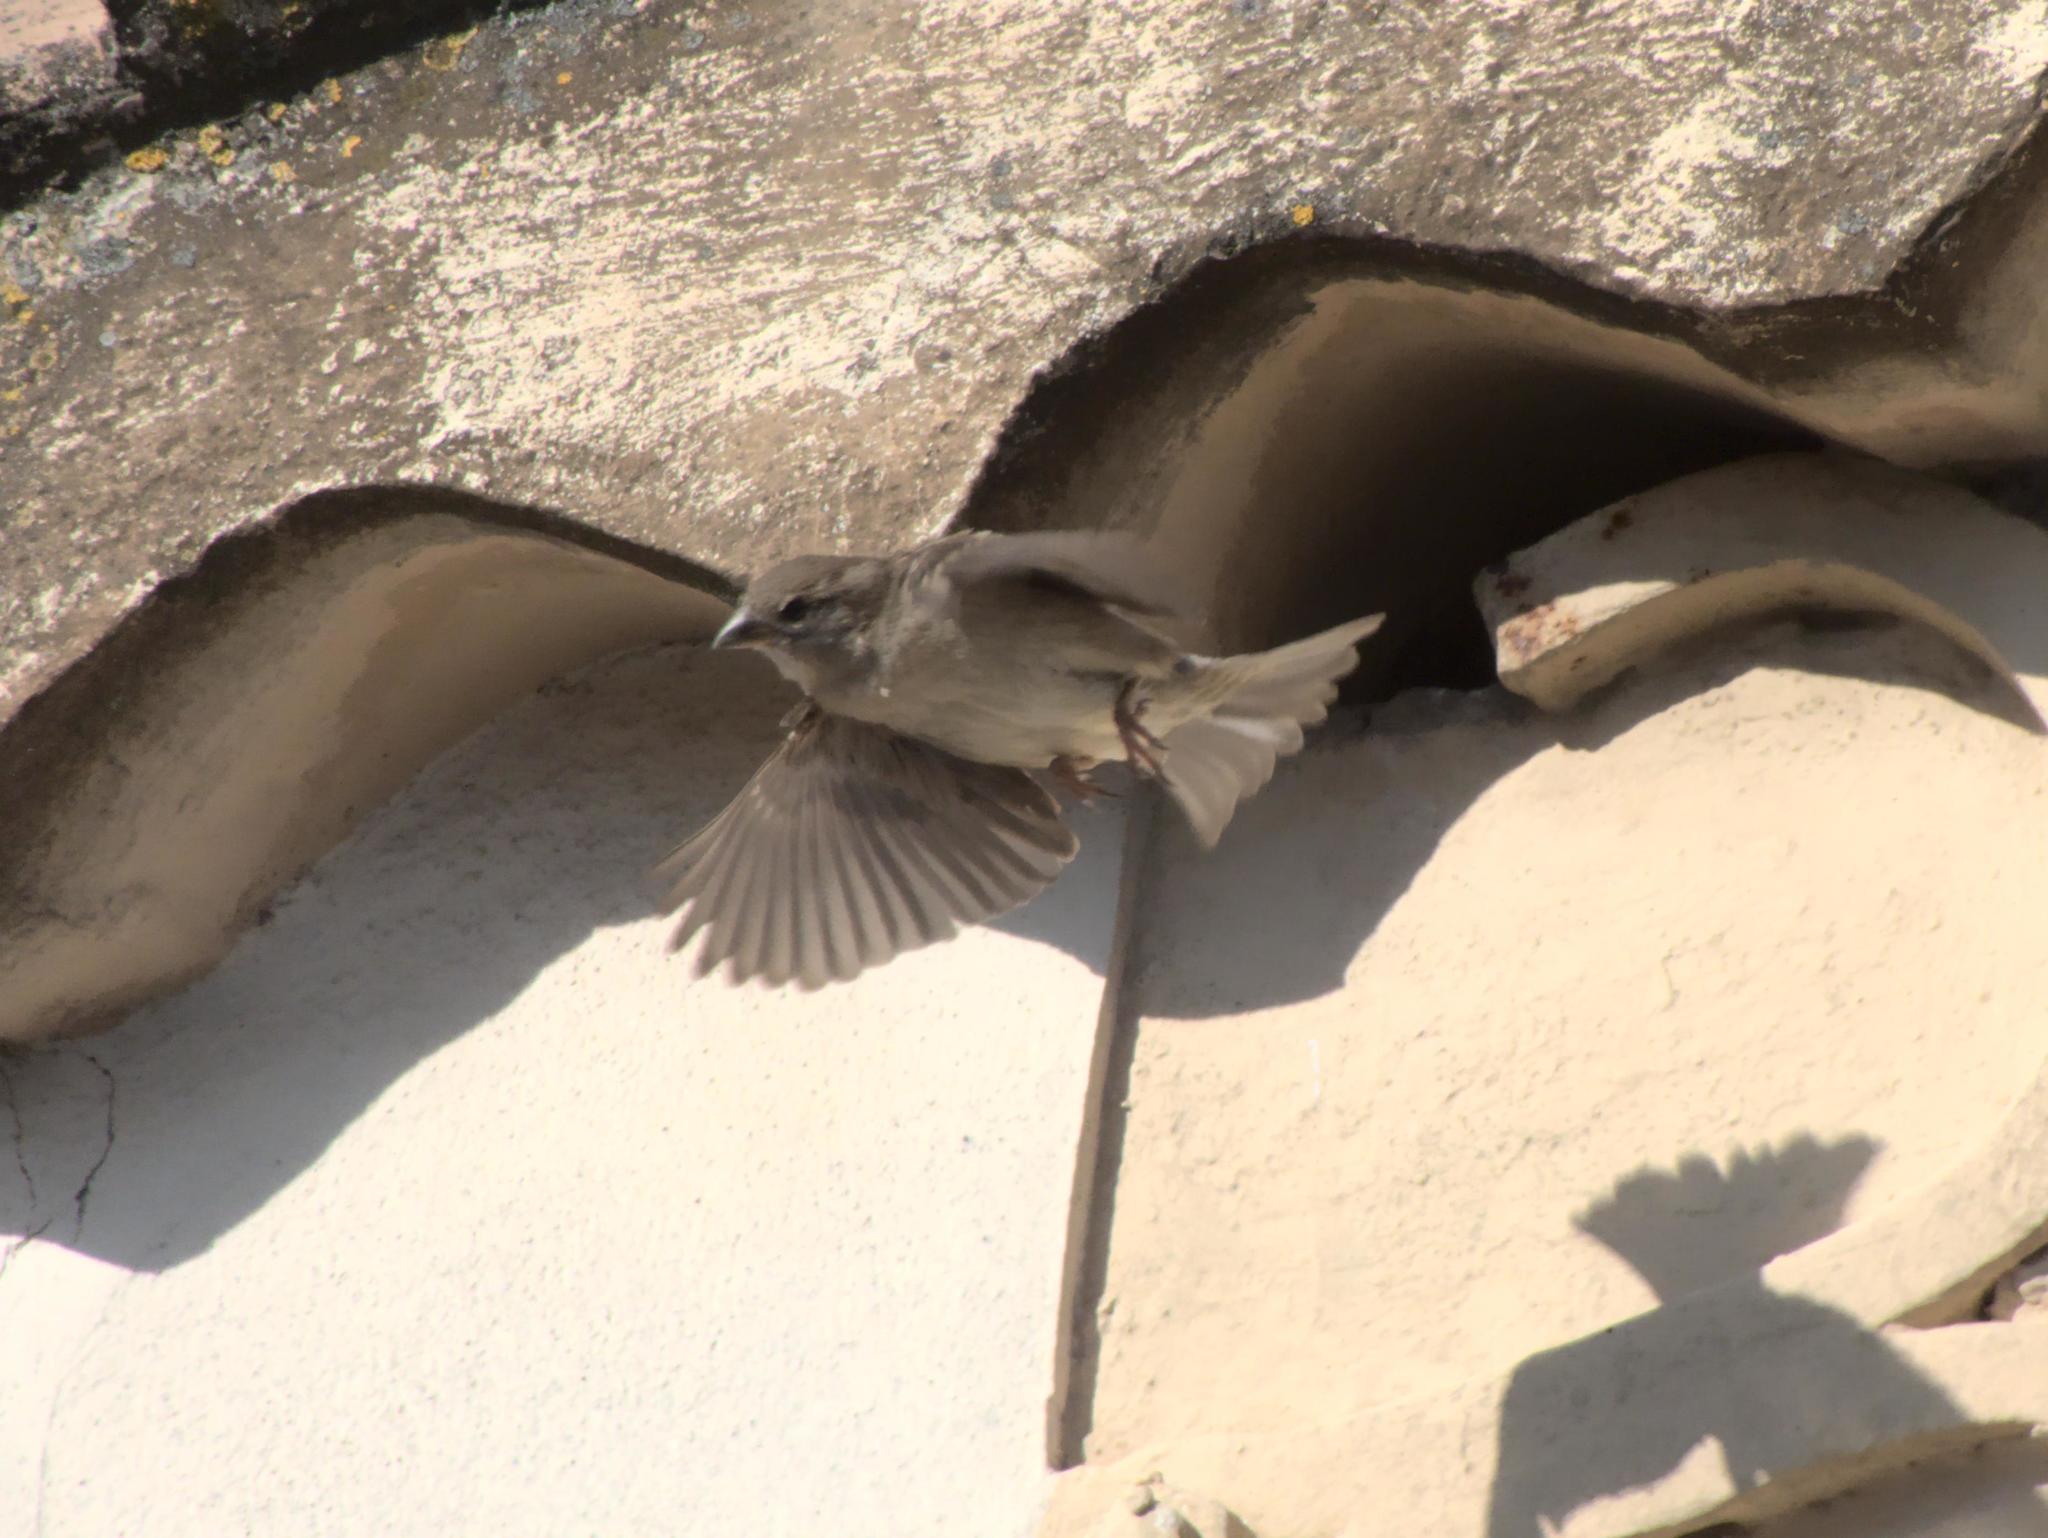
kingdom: Animalia
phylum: Chordata
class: Aves
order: Passeriformes
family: Passeridae
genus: Passer
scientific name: Passer domesticus
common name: House sparrow
